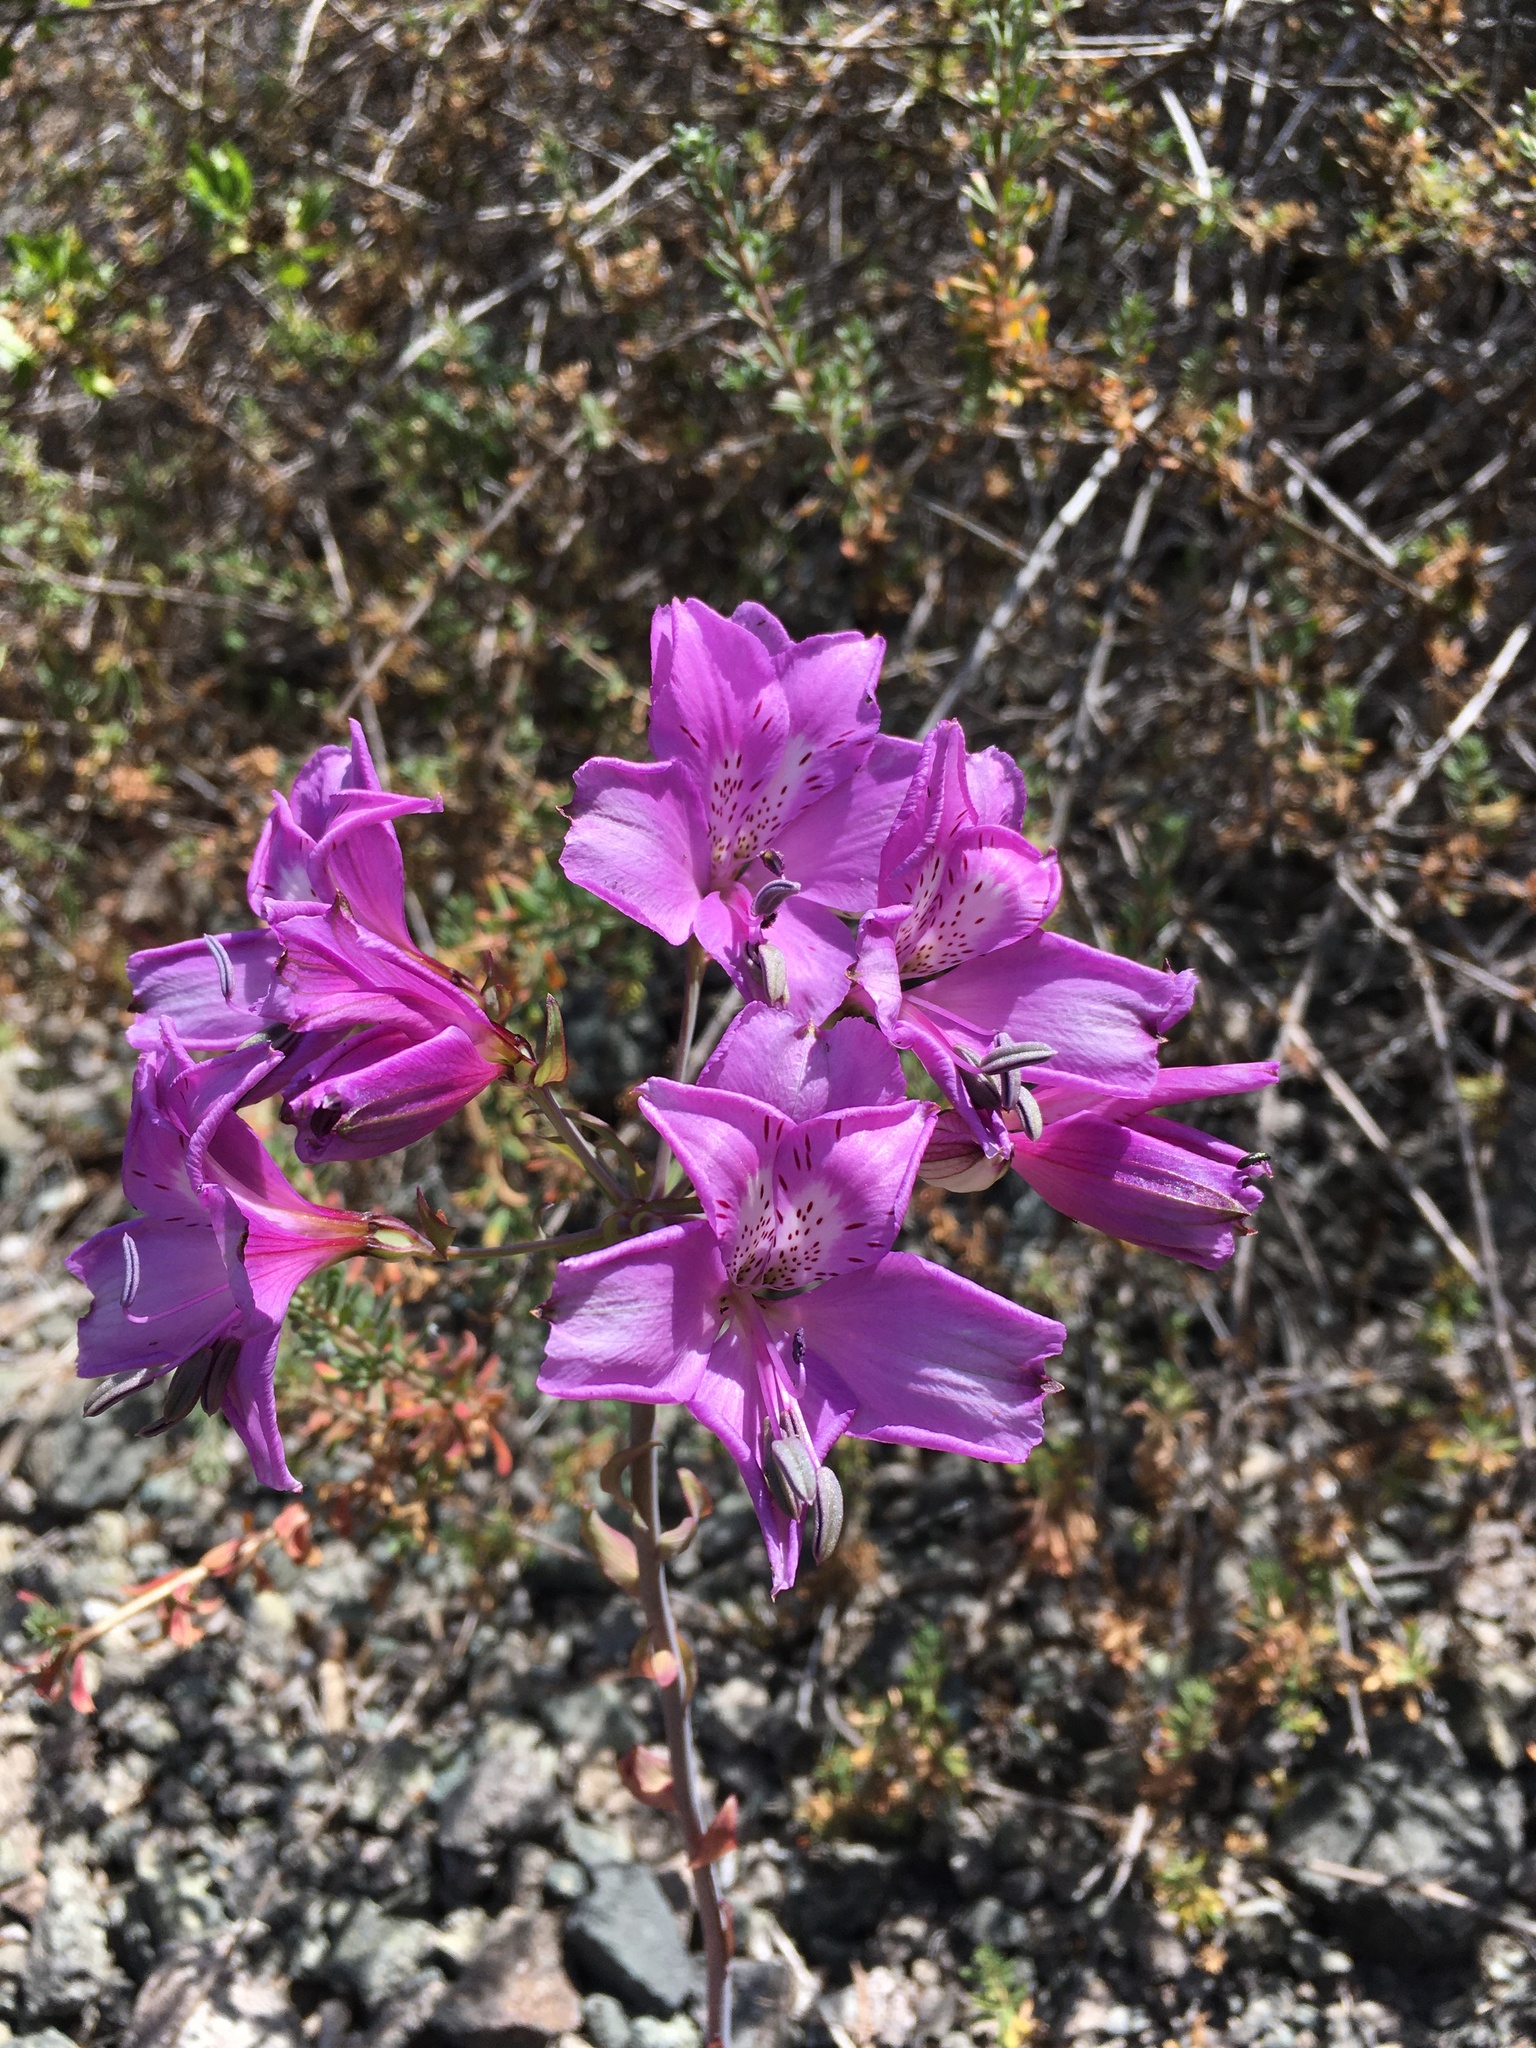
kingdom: Plantae
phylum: Tracheophyta
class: Liliopsida
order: Liliales
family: Alstroemeriaceae
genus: Alstroemeria
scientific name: Alstroemeria violacea
